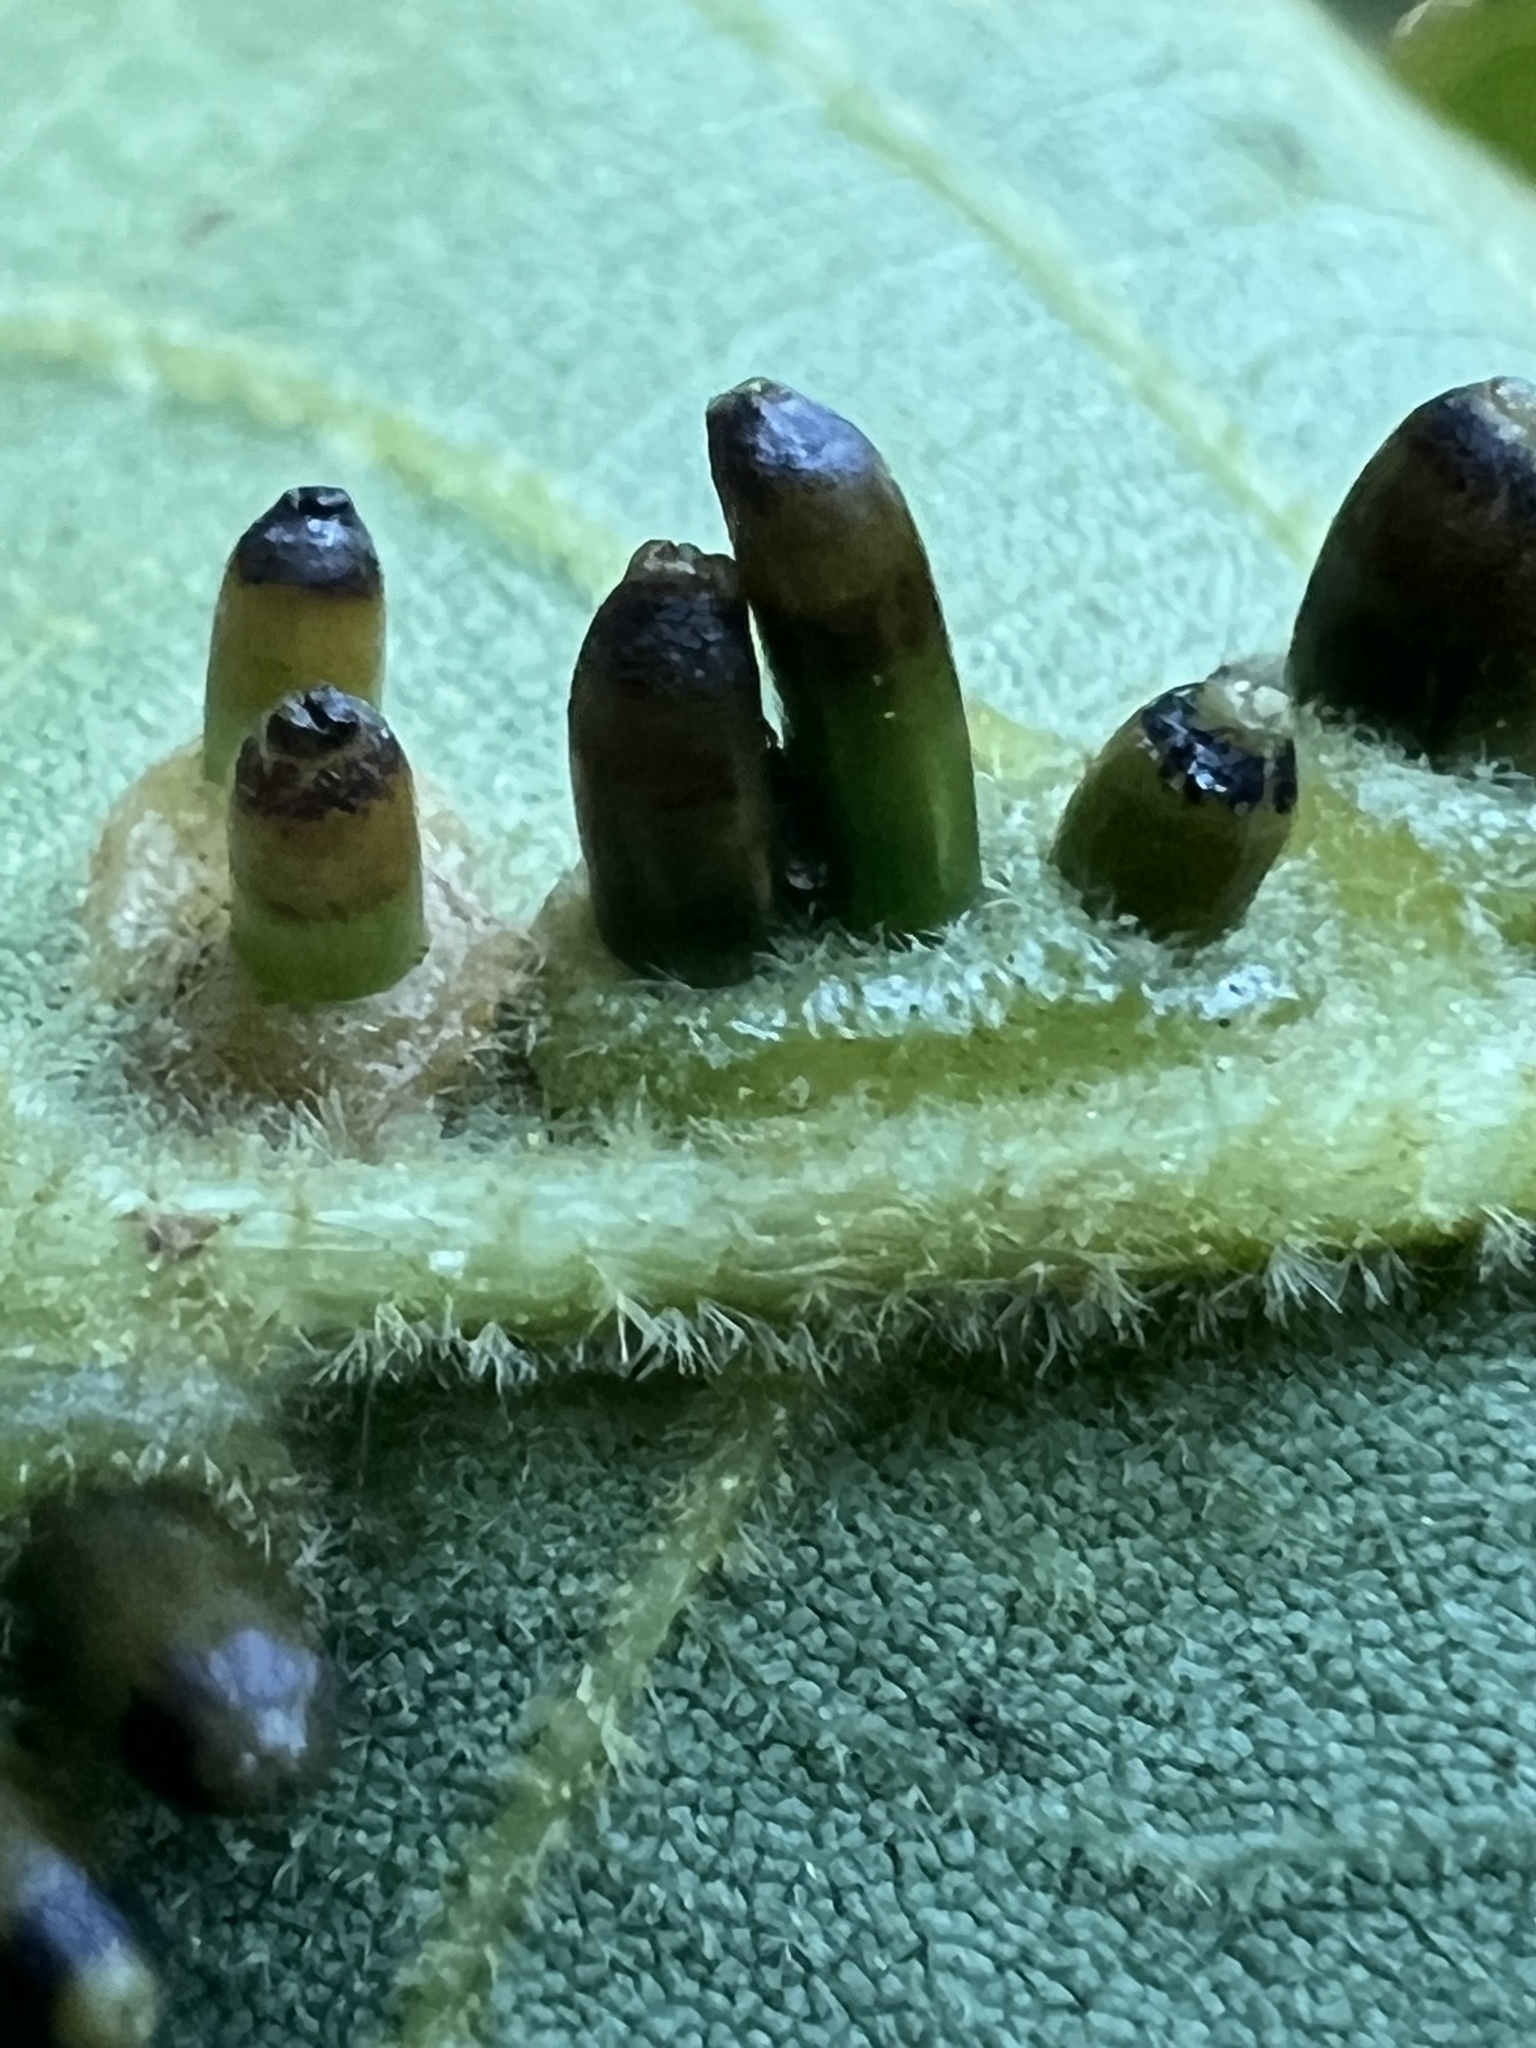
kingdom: Animalia
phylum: Arthropoda
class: Insecta
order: Diptera
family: Cecidomyiidae
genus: Caryomyia
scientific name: Caryomyia tubicola
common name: Hickory bullet gall midge
